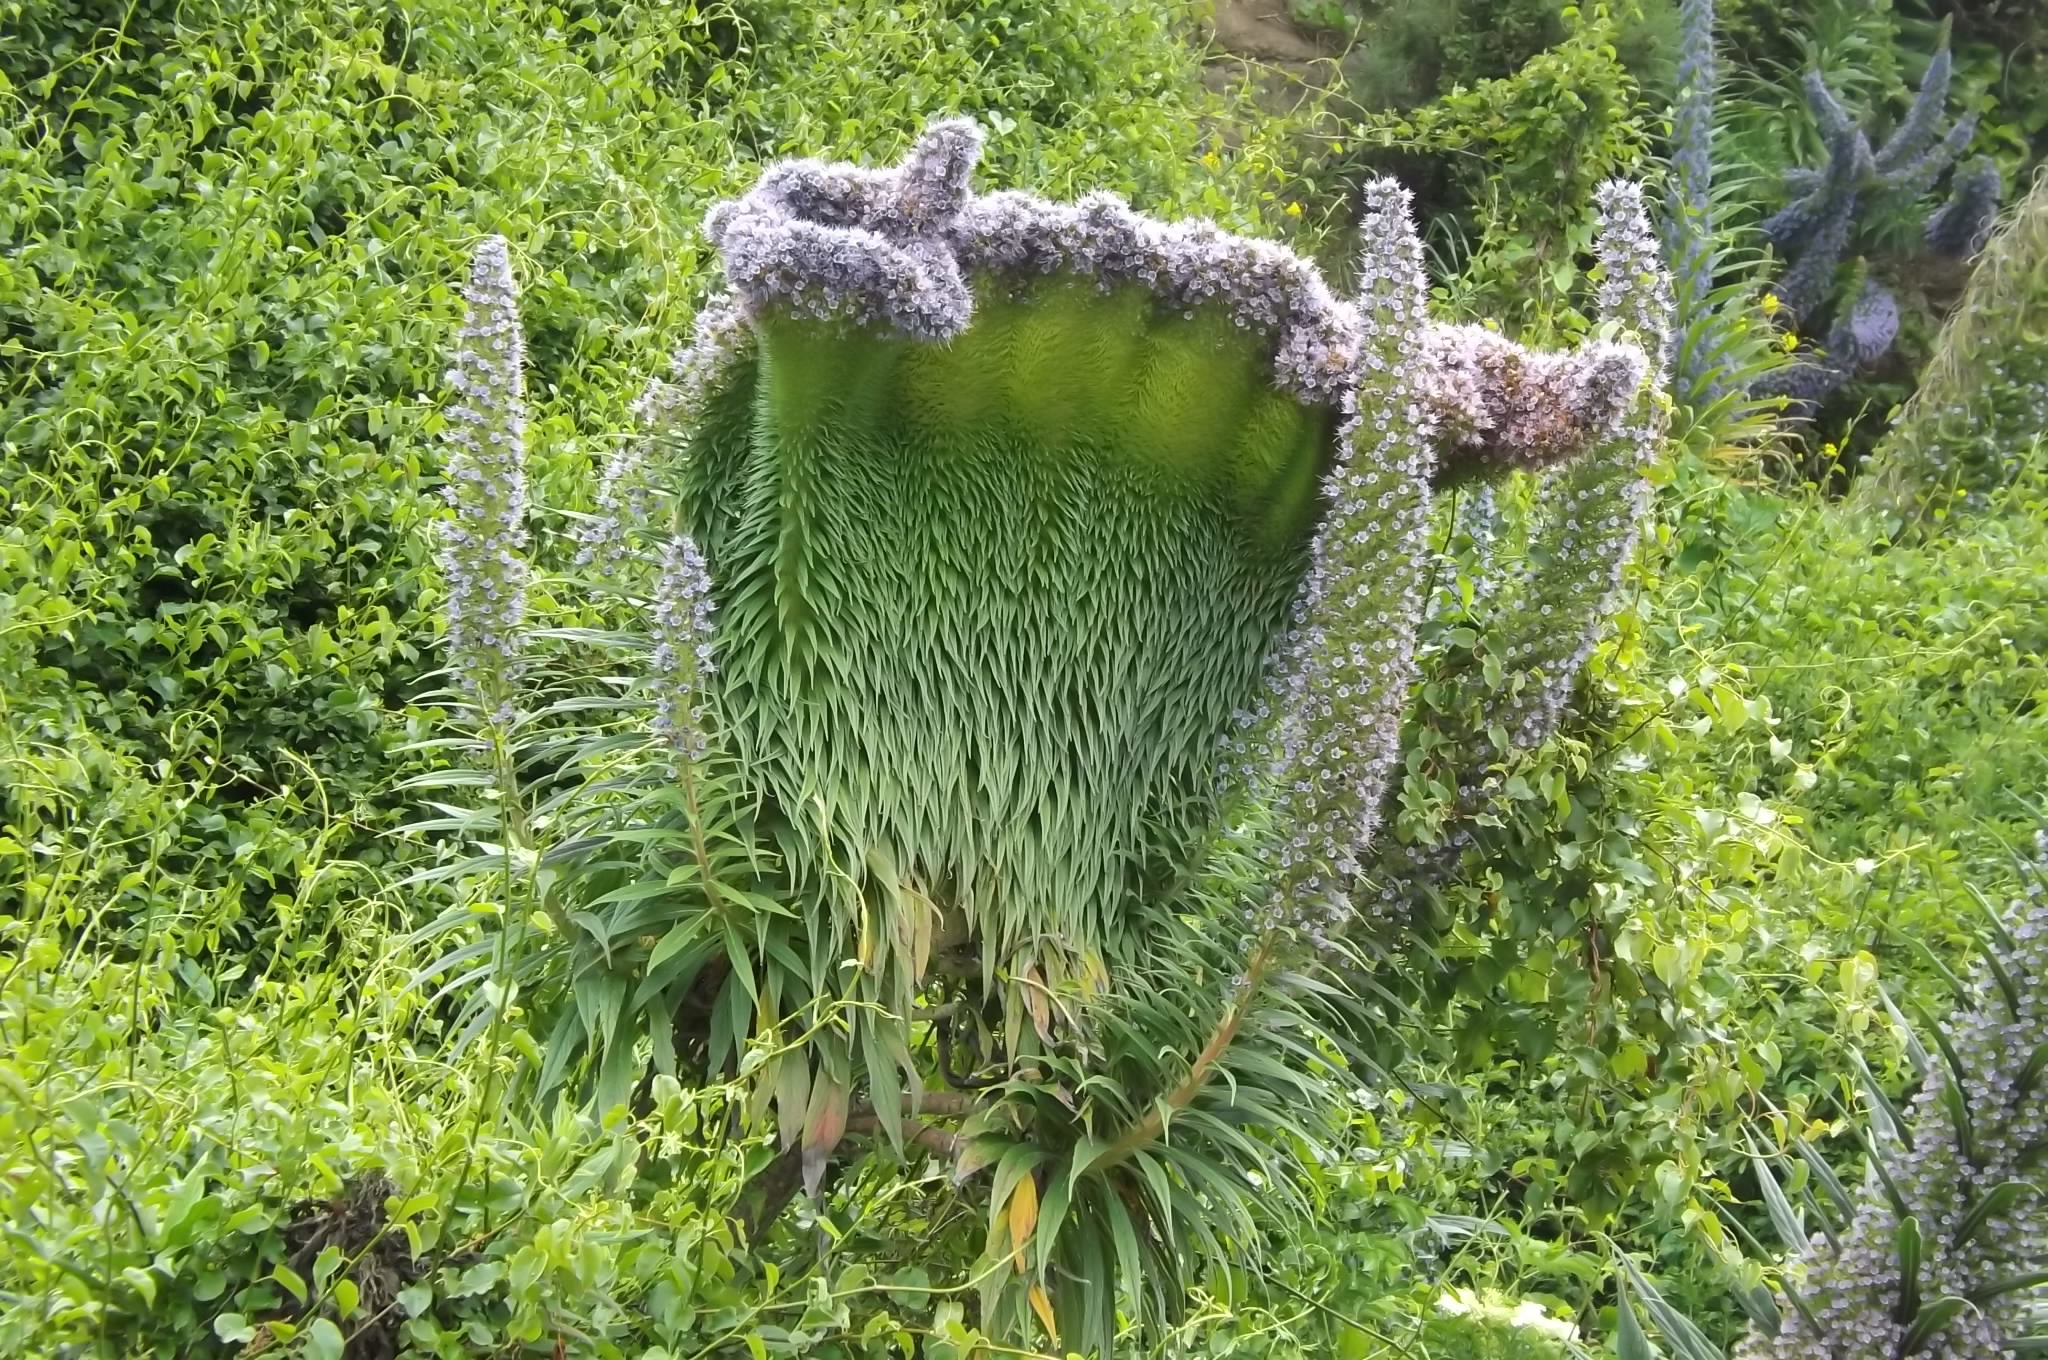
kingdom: Plantae
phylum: Tracheophyta
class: Magnoliopsida
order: Boraginales
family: Boraginaceae
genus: Echium
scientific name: Echium candicans
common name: Pride of madeira
